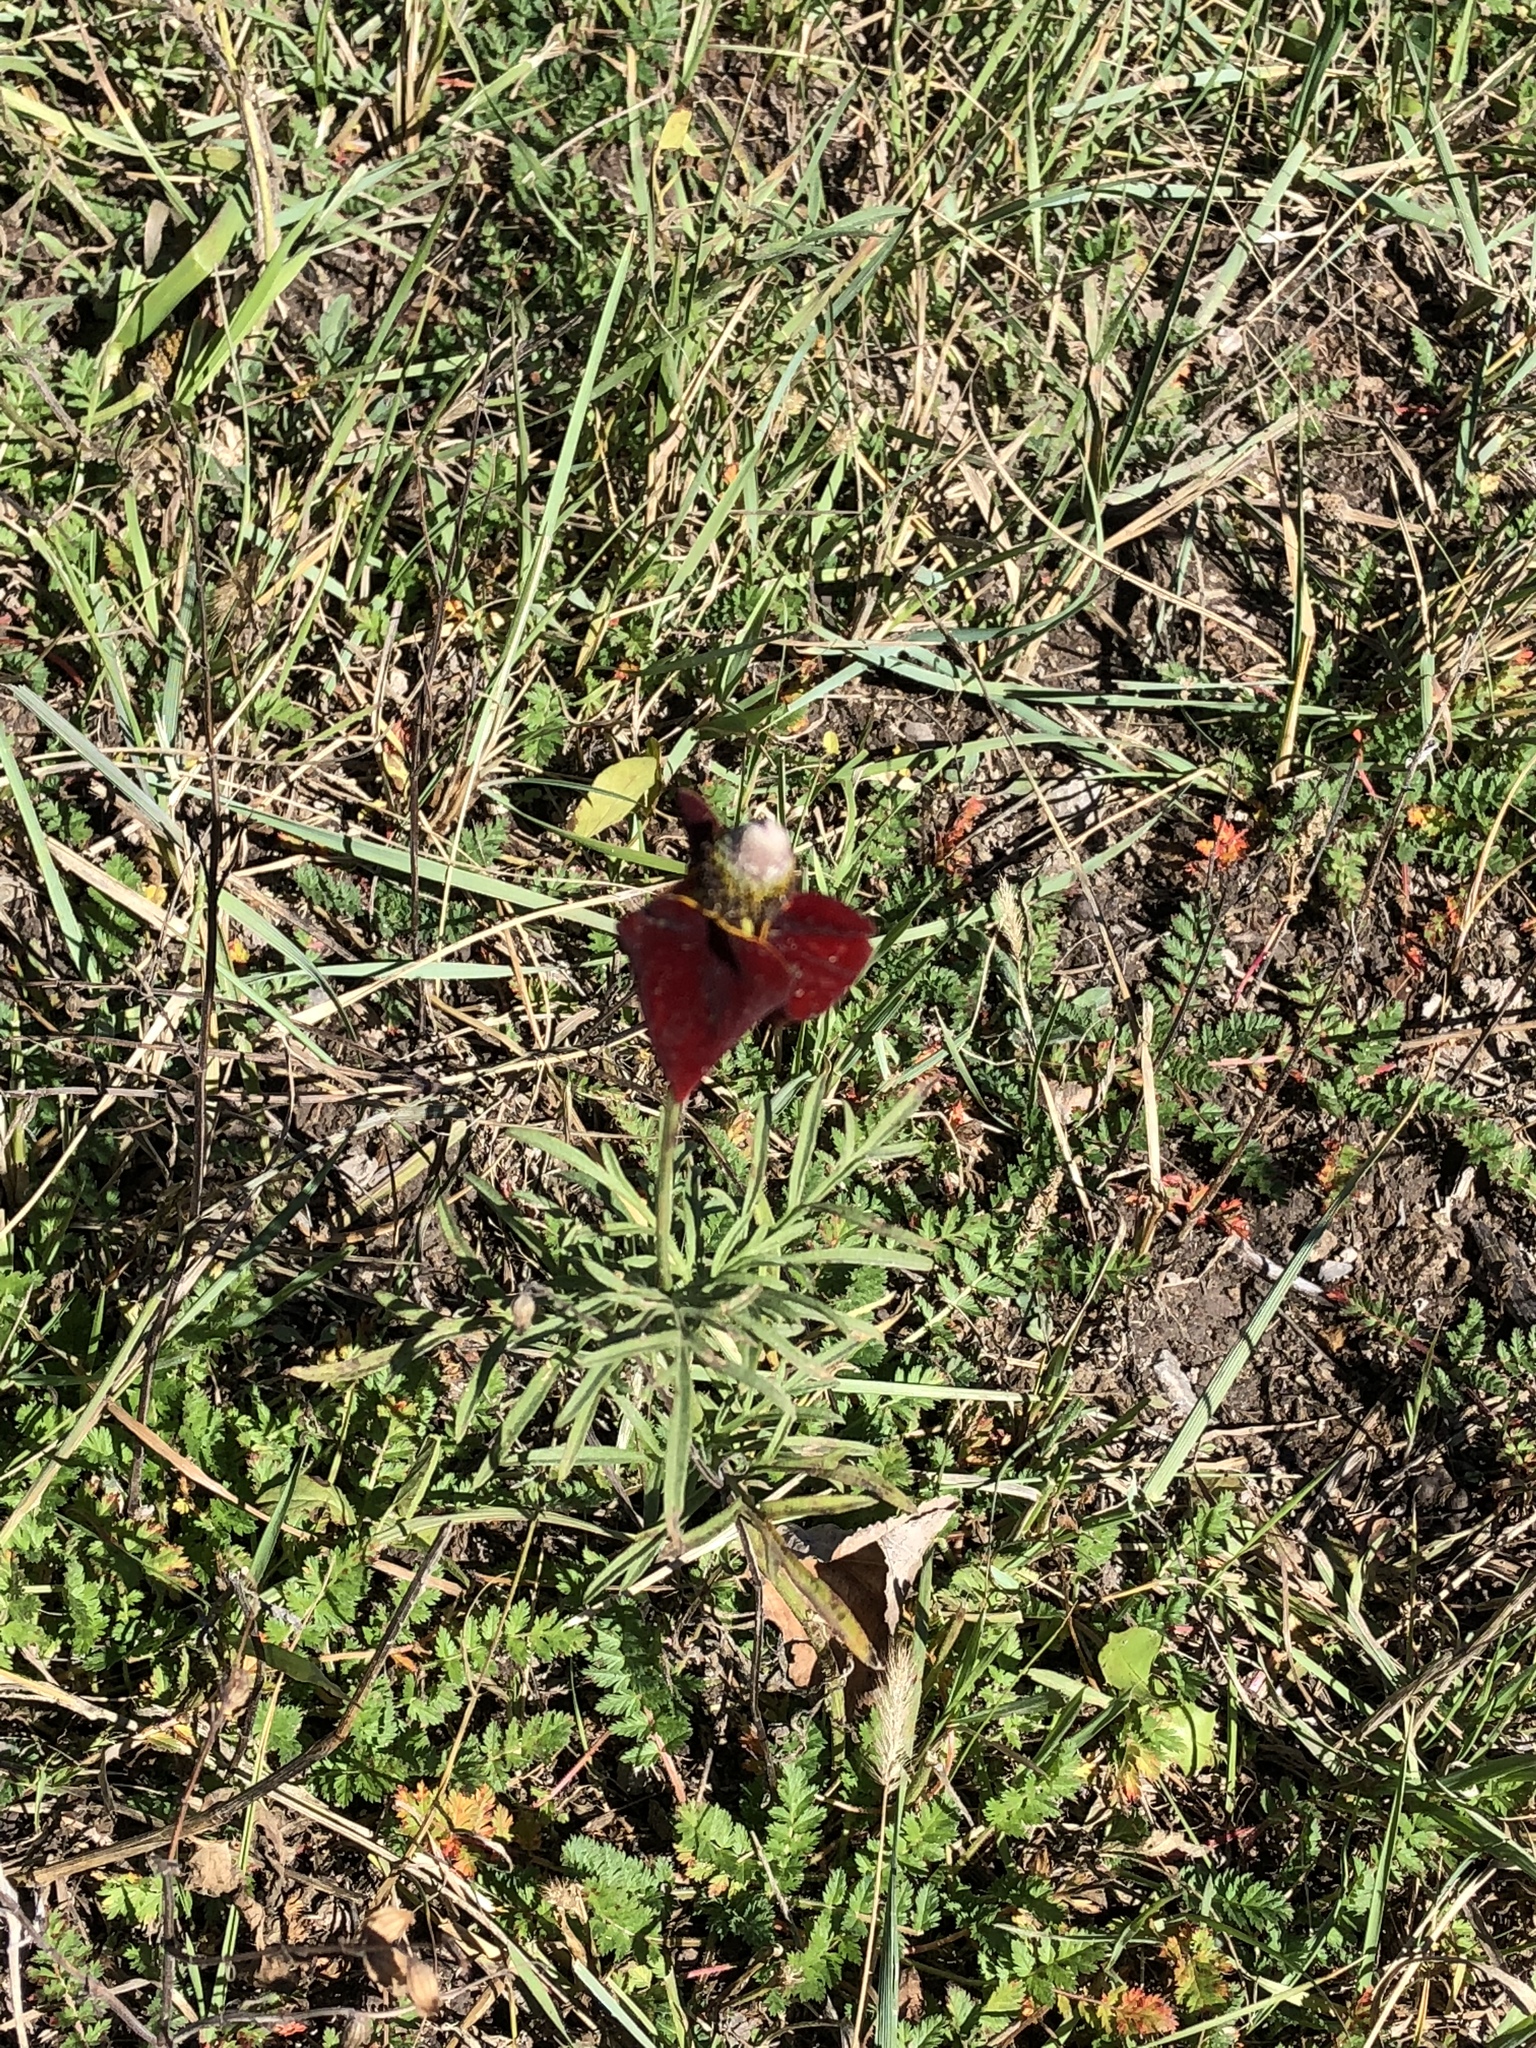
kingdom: Plantae
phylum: Tracheophyta
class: Magnoliopsida
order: Asterales
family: Asteraceae
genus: Ratibida
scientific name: Ratibida columnifera
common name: Prairie coneflower
